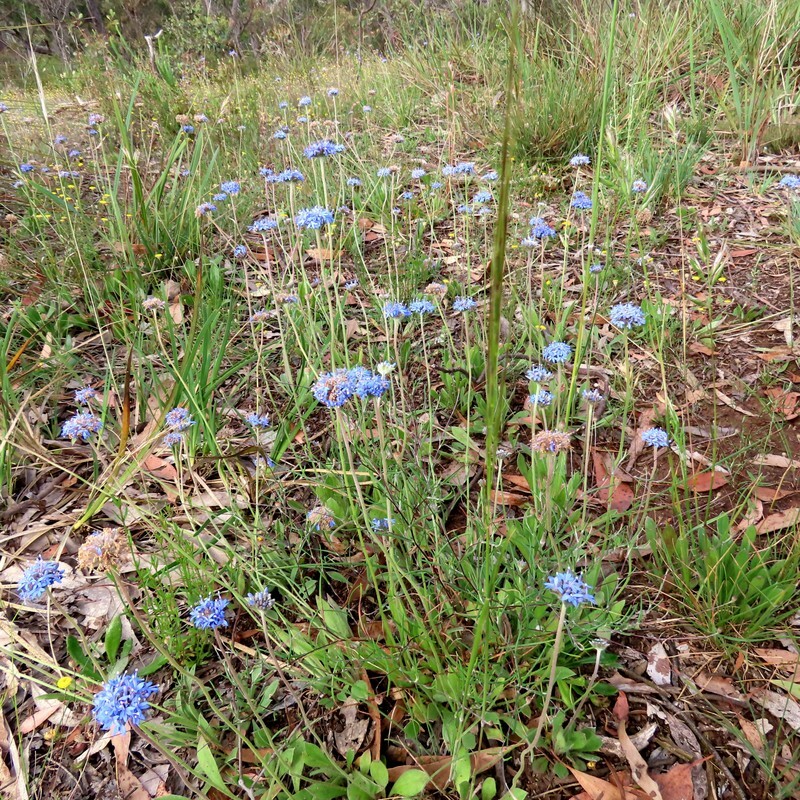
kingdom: Plantae
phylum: Tracheophyta
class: Magnoliopsida
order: Asterales
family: Goodeniaceae
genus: Brunonia
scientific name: Brunonia australis
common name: Blue pincushion
